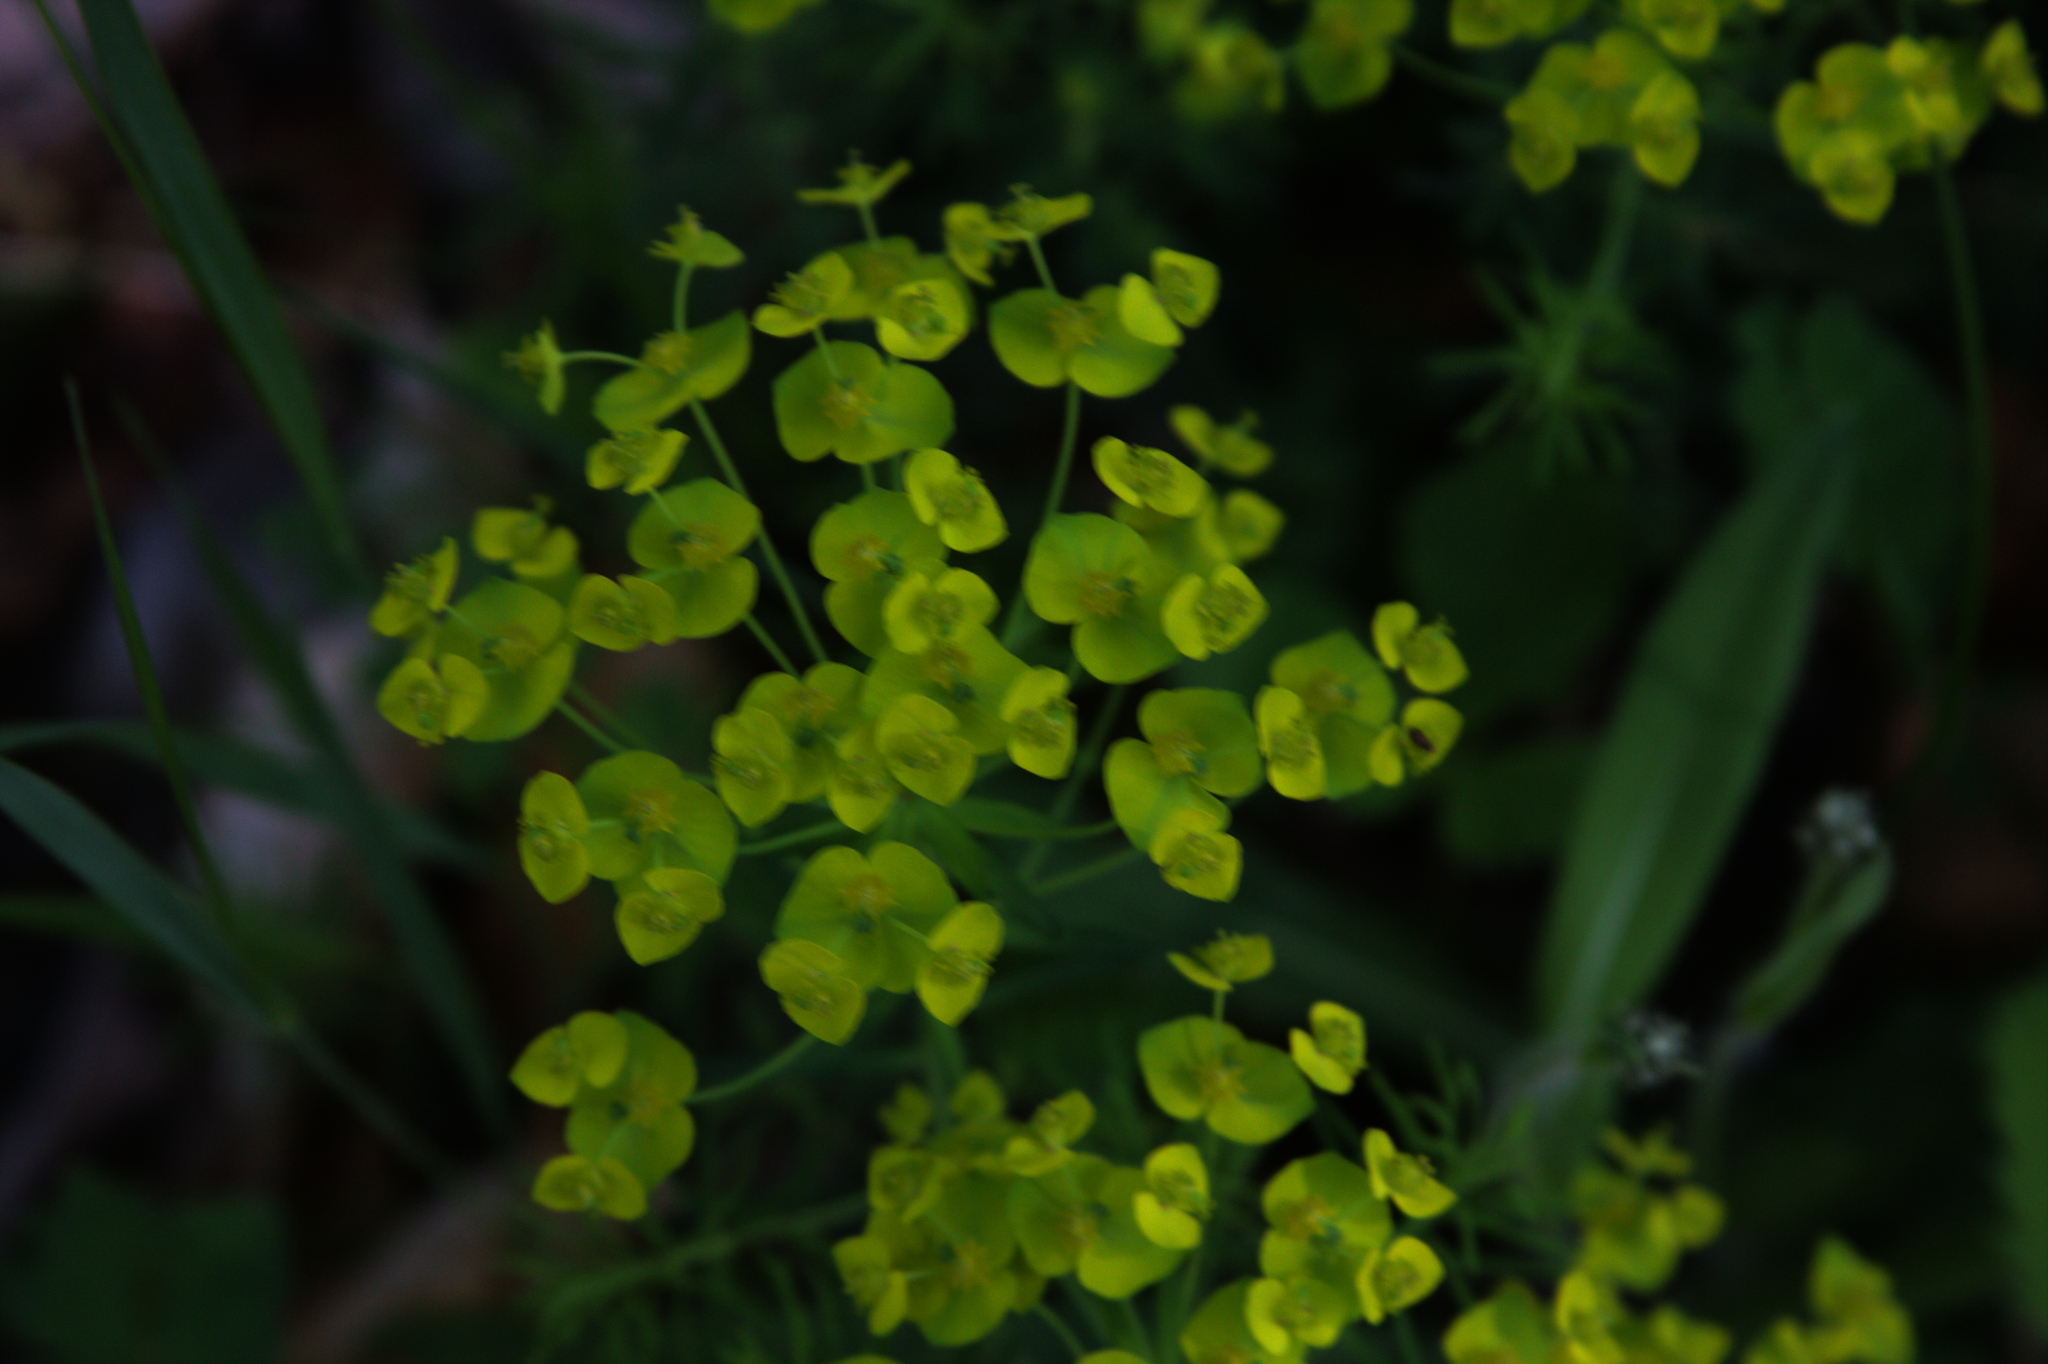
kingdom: Plantae
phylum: Tracheophyta
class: Magnoliopsida
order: Malpighiales
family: Euphorbiaceae
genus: Euphorbia
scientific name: Euphorbia cyparissias
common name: Cypress spurge
